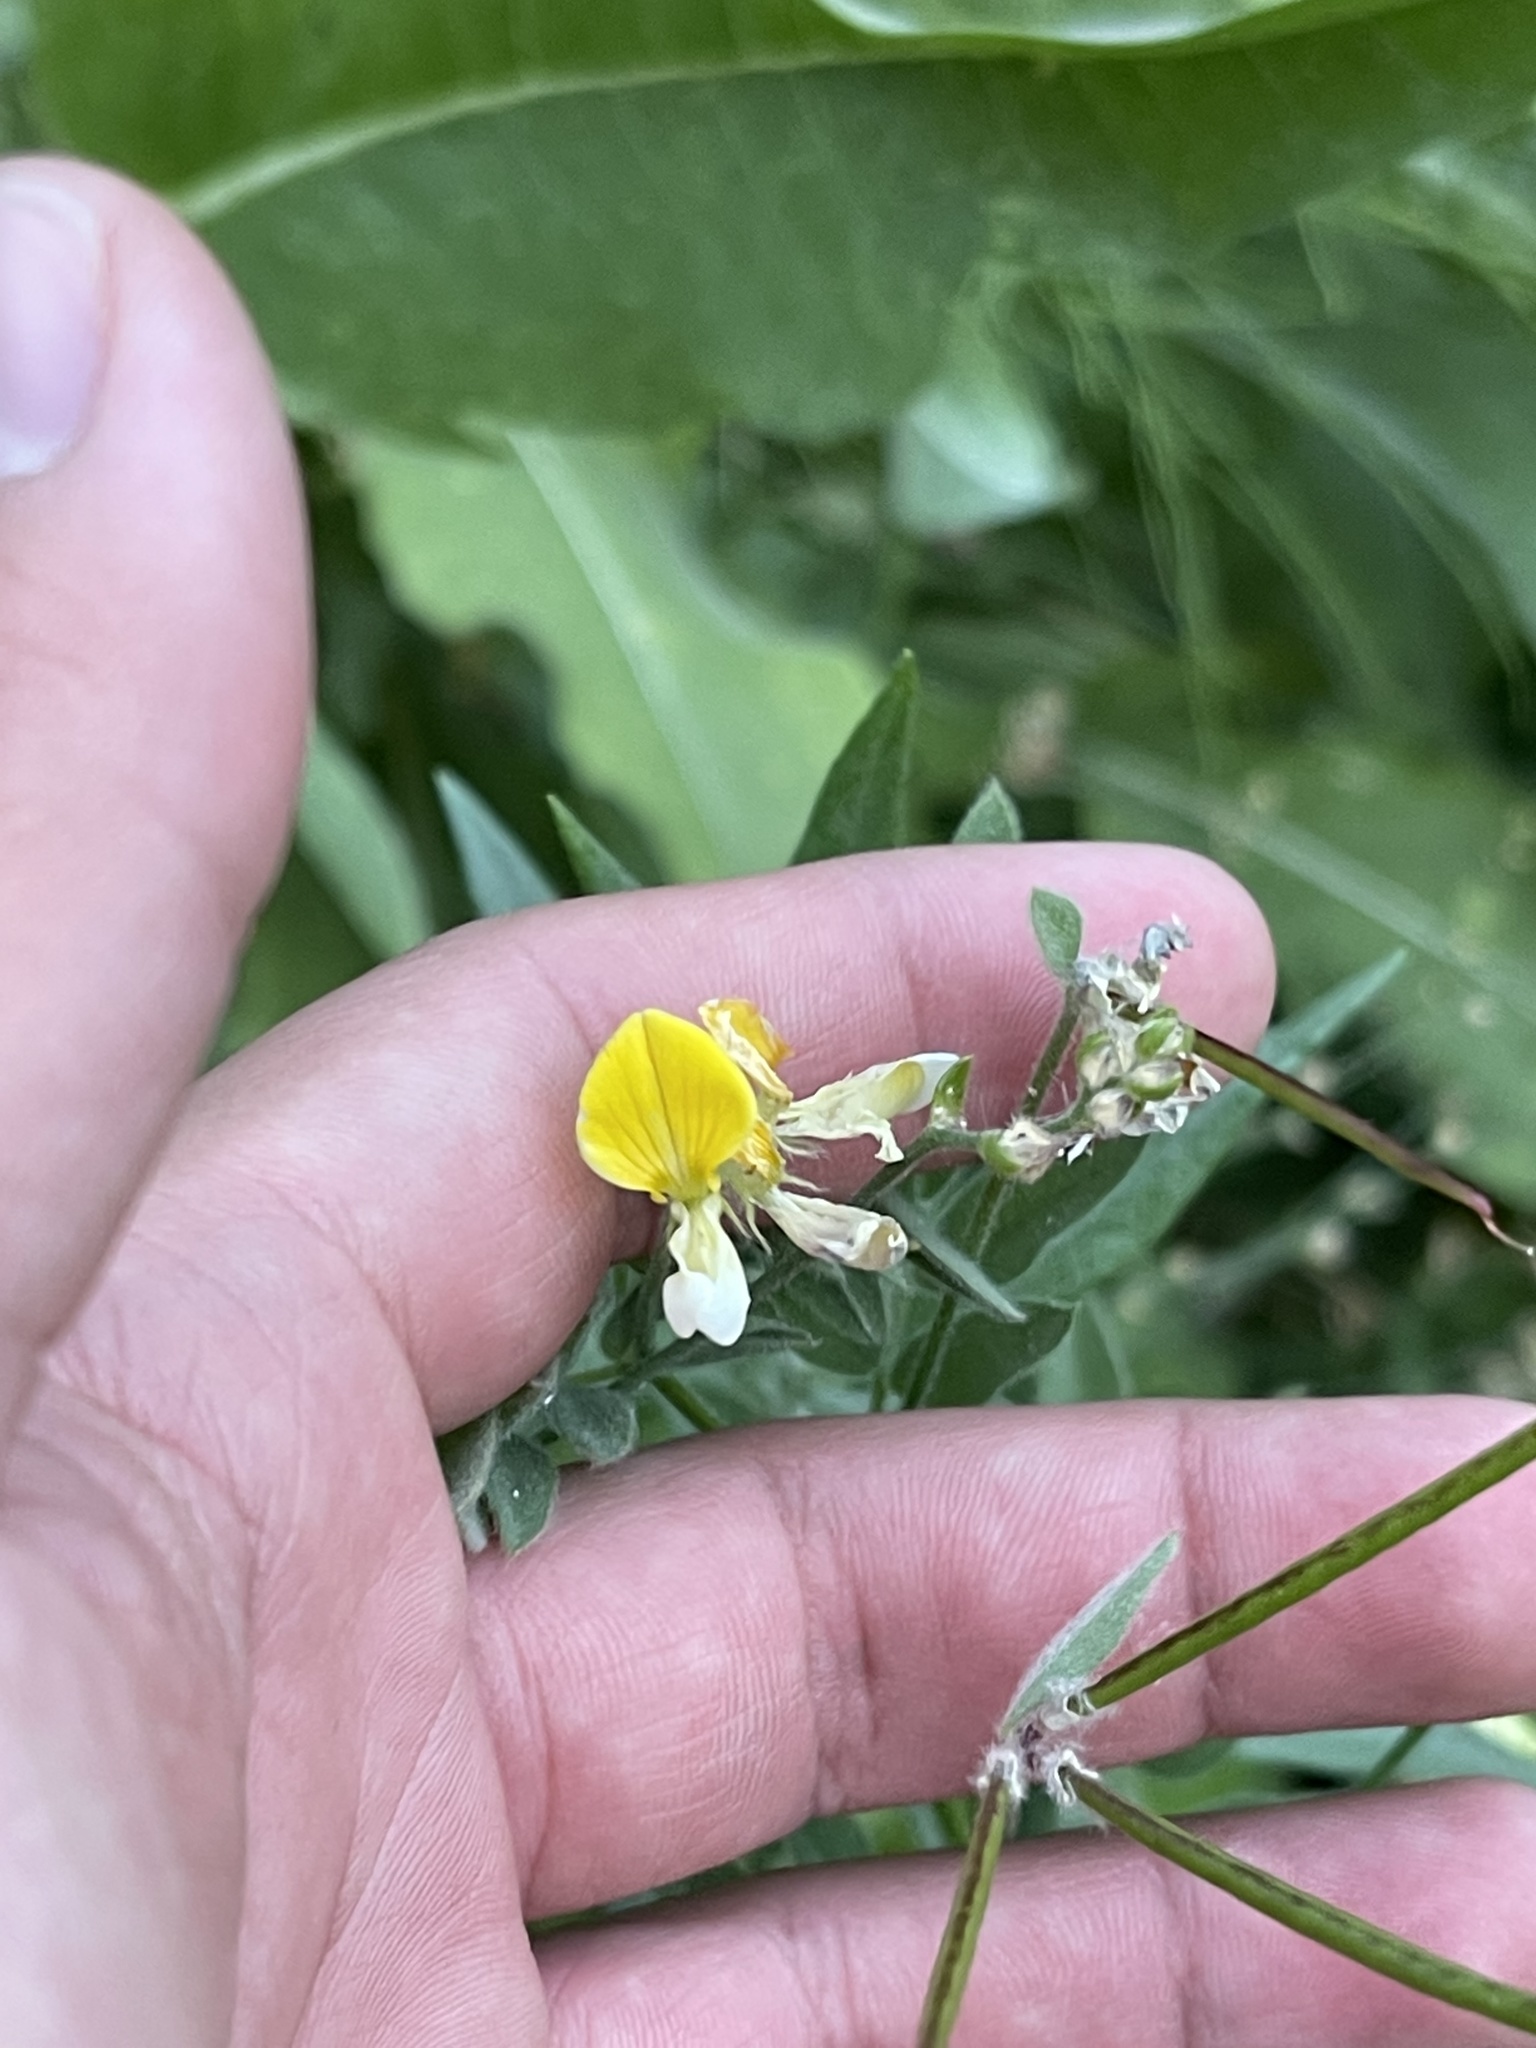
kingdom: Plantae
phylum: Tracheophyta
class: Magnoliopsida
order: Fabales
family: Fabaceae
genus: Hosackia
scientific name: Hosackia oblongifolia
